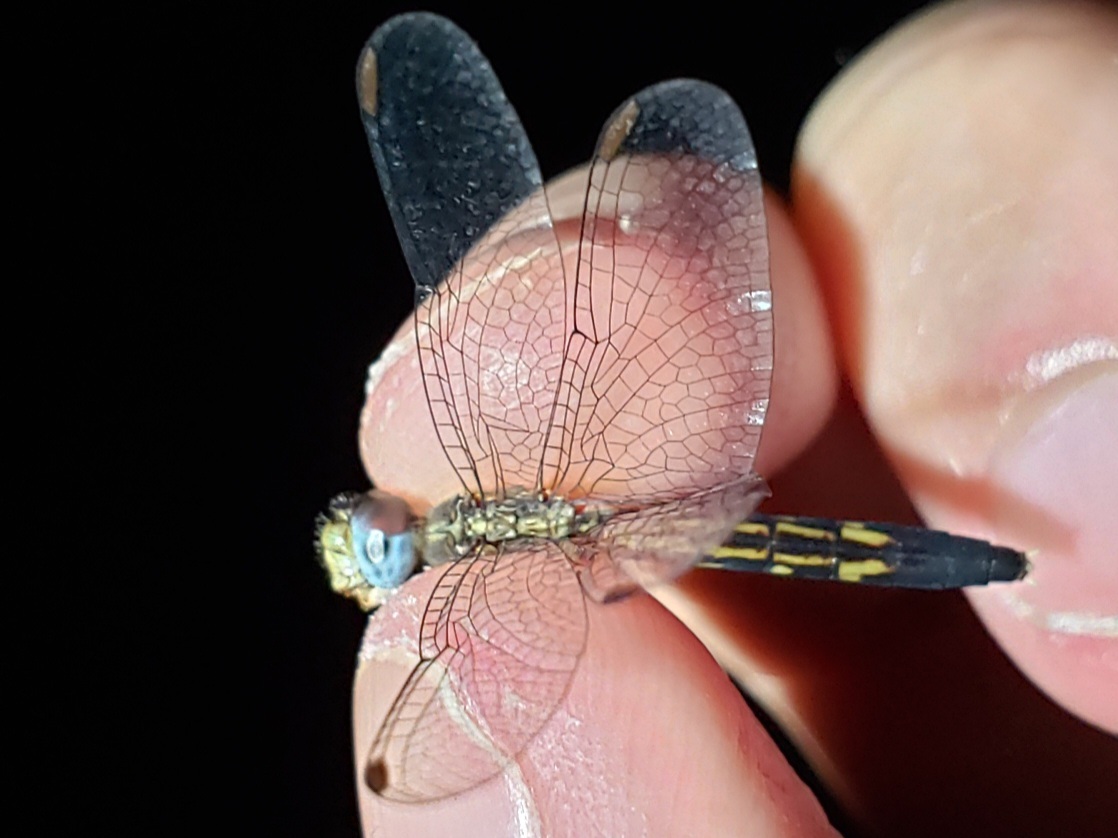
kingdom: Animalia
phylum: Arthropoda
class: Insecta
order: Odonata
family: Libellulidae
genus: Erythrodiplax
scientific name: Erythrodiplax minuscula
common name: Little blue dragonlet
